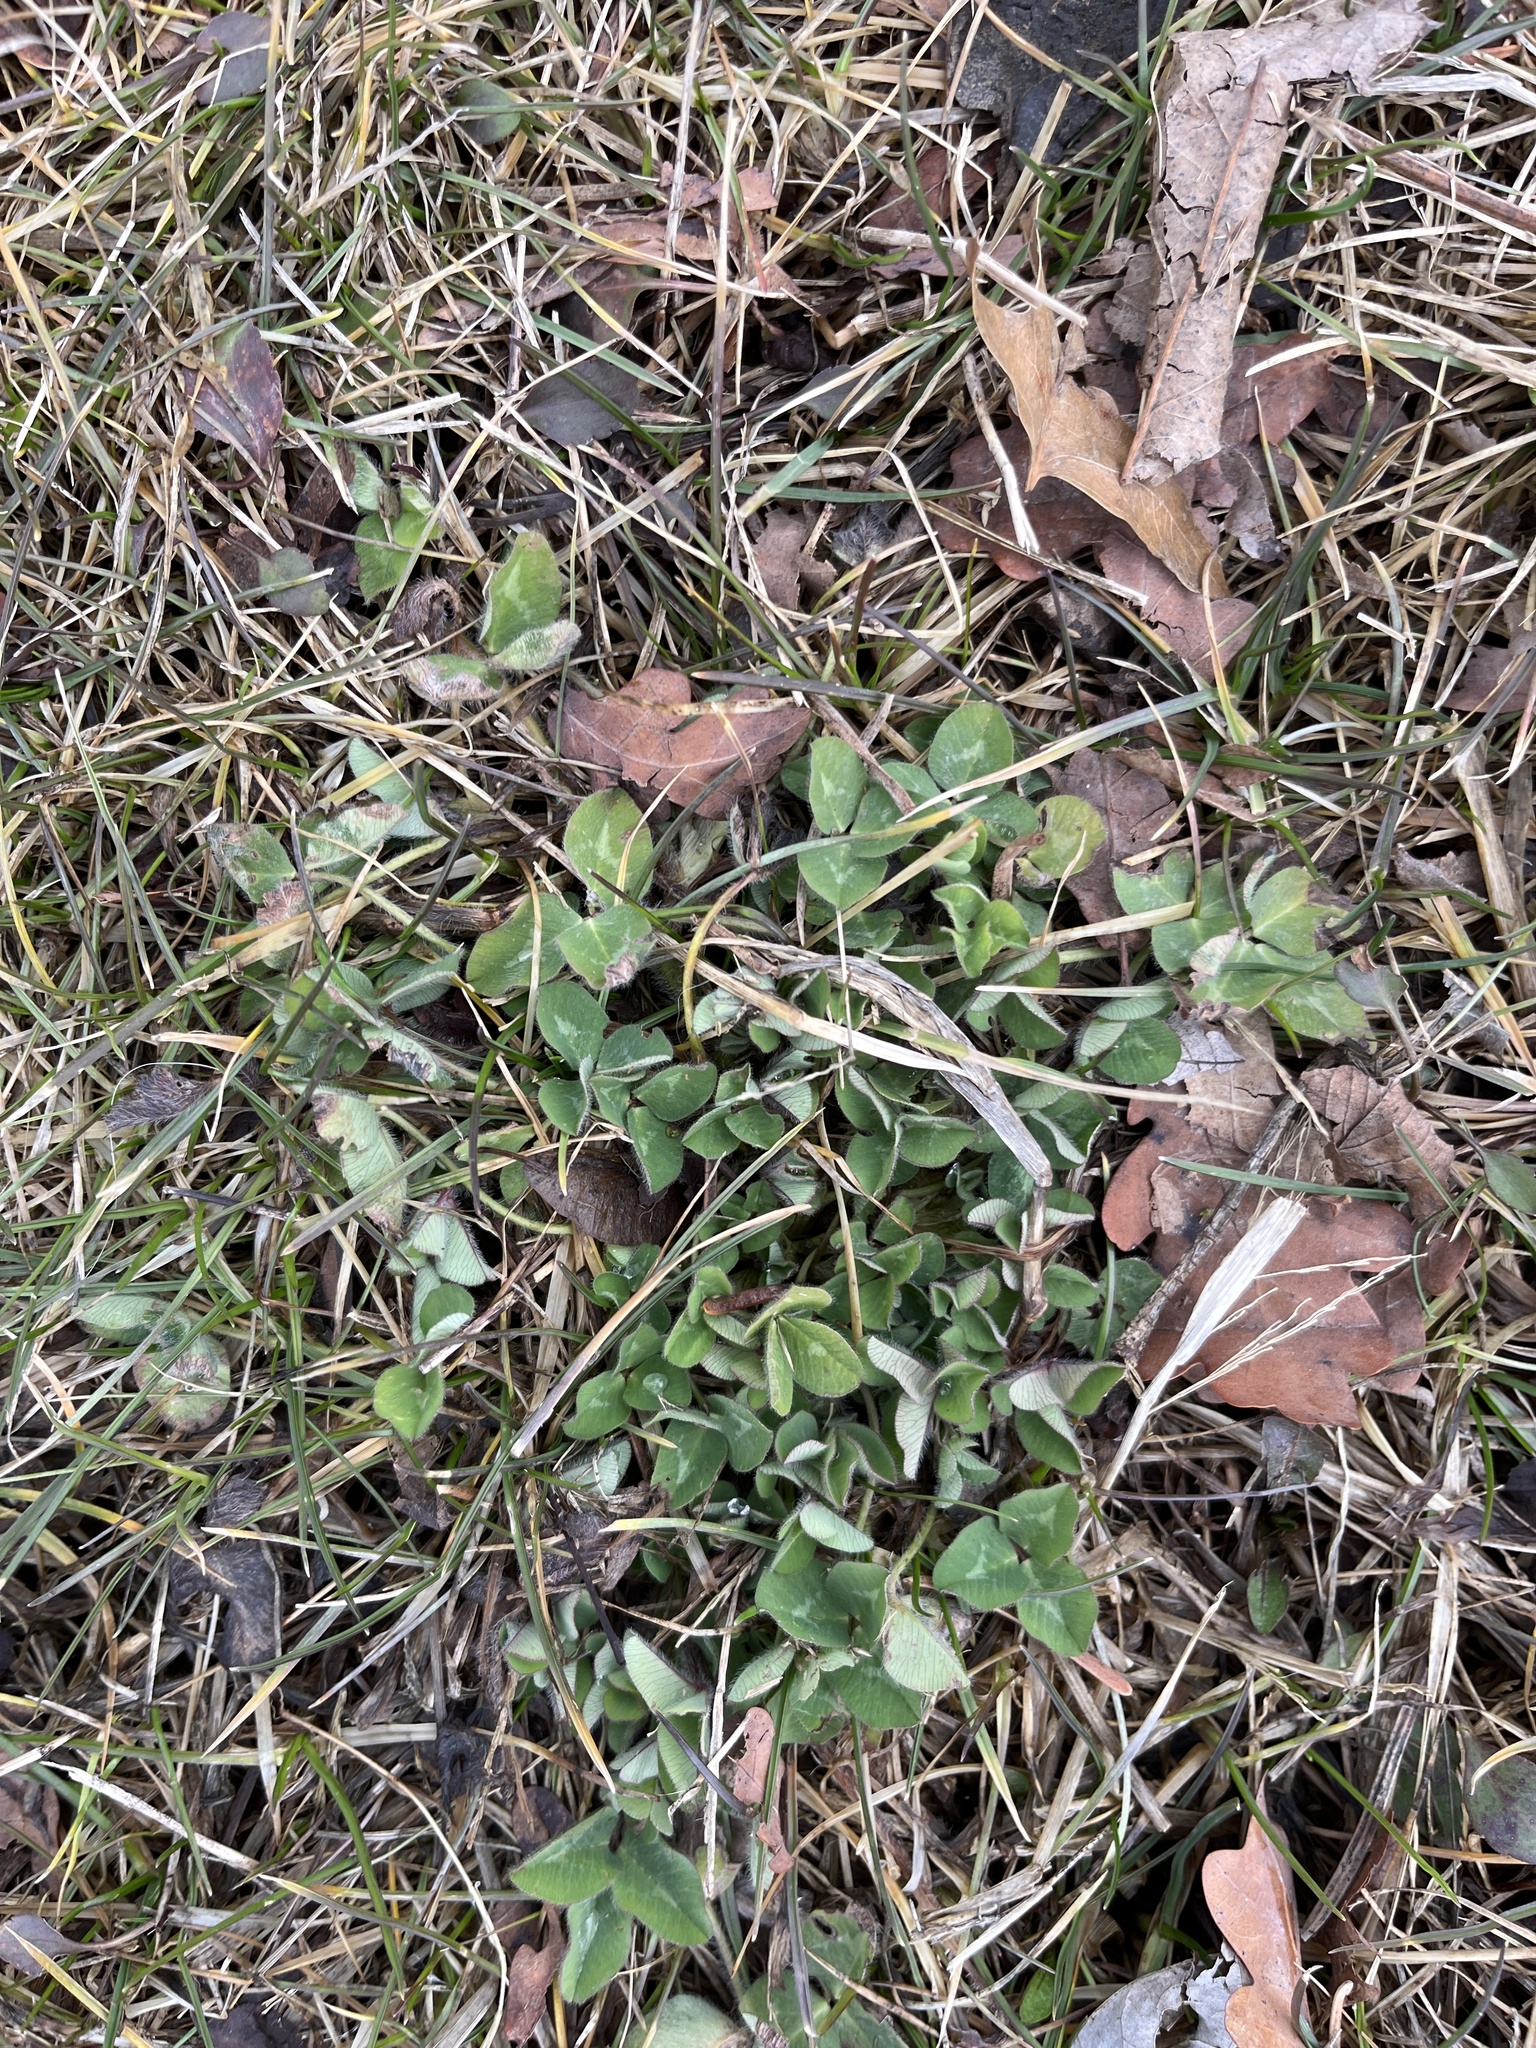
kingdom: Plantae
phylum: Tracheophyta
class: Magnoliopsida
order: Fabales
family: Fabaceae
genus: Trifolium
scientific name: Trifolium pratense
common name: Red clover
